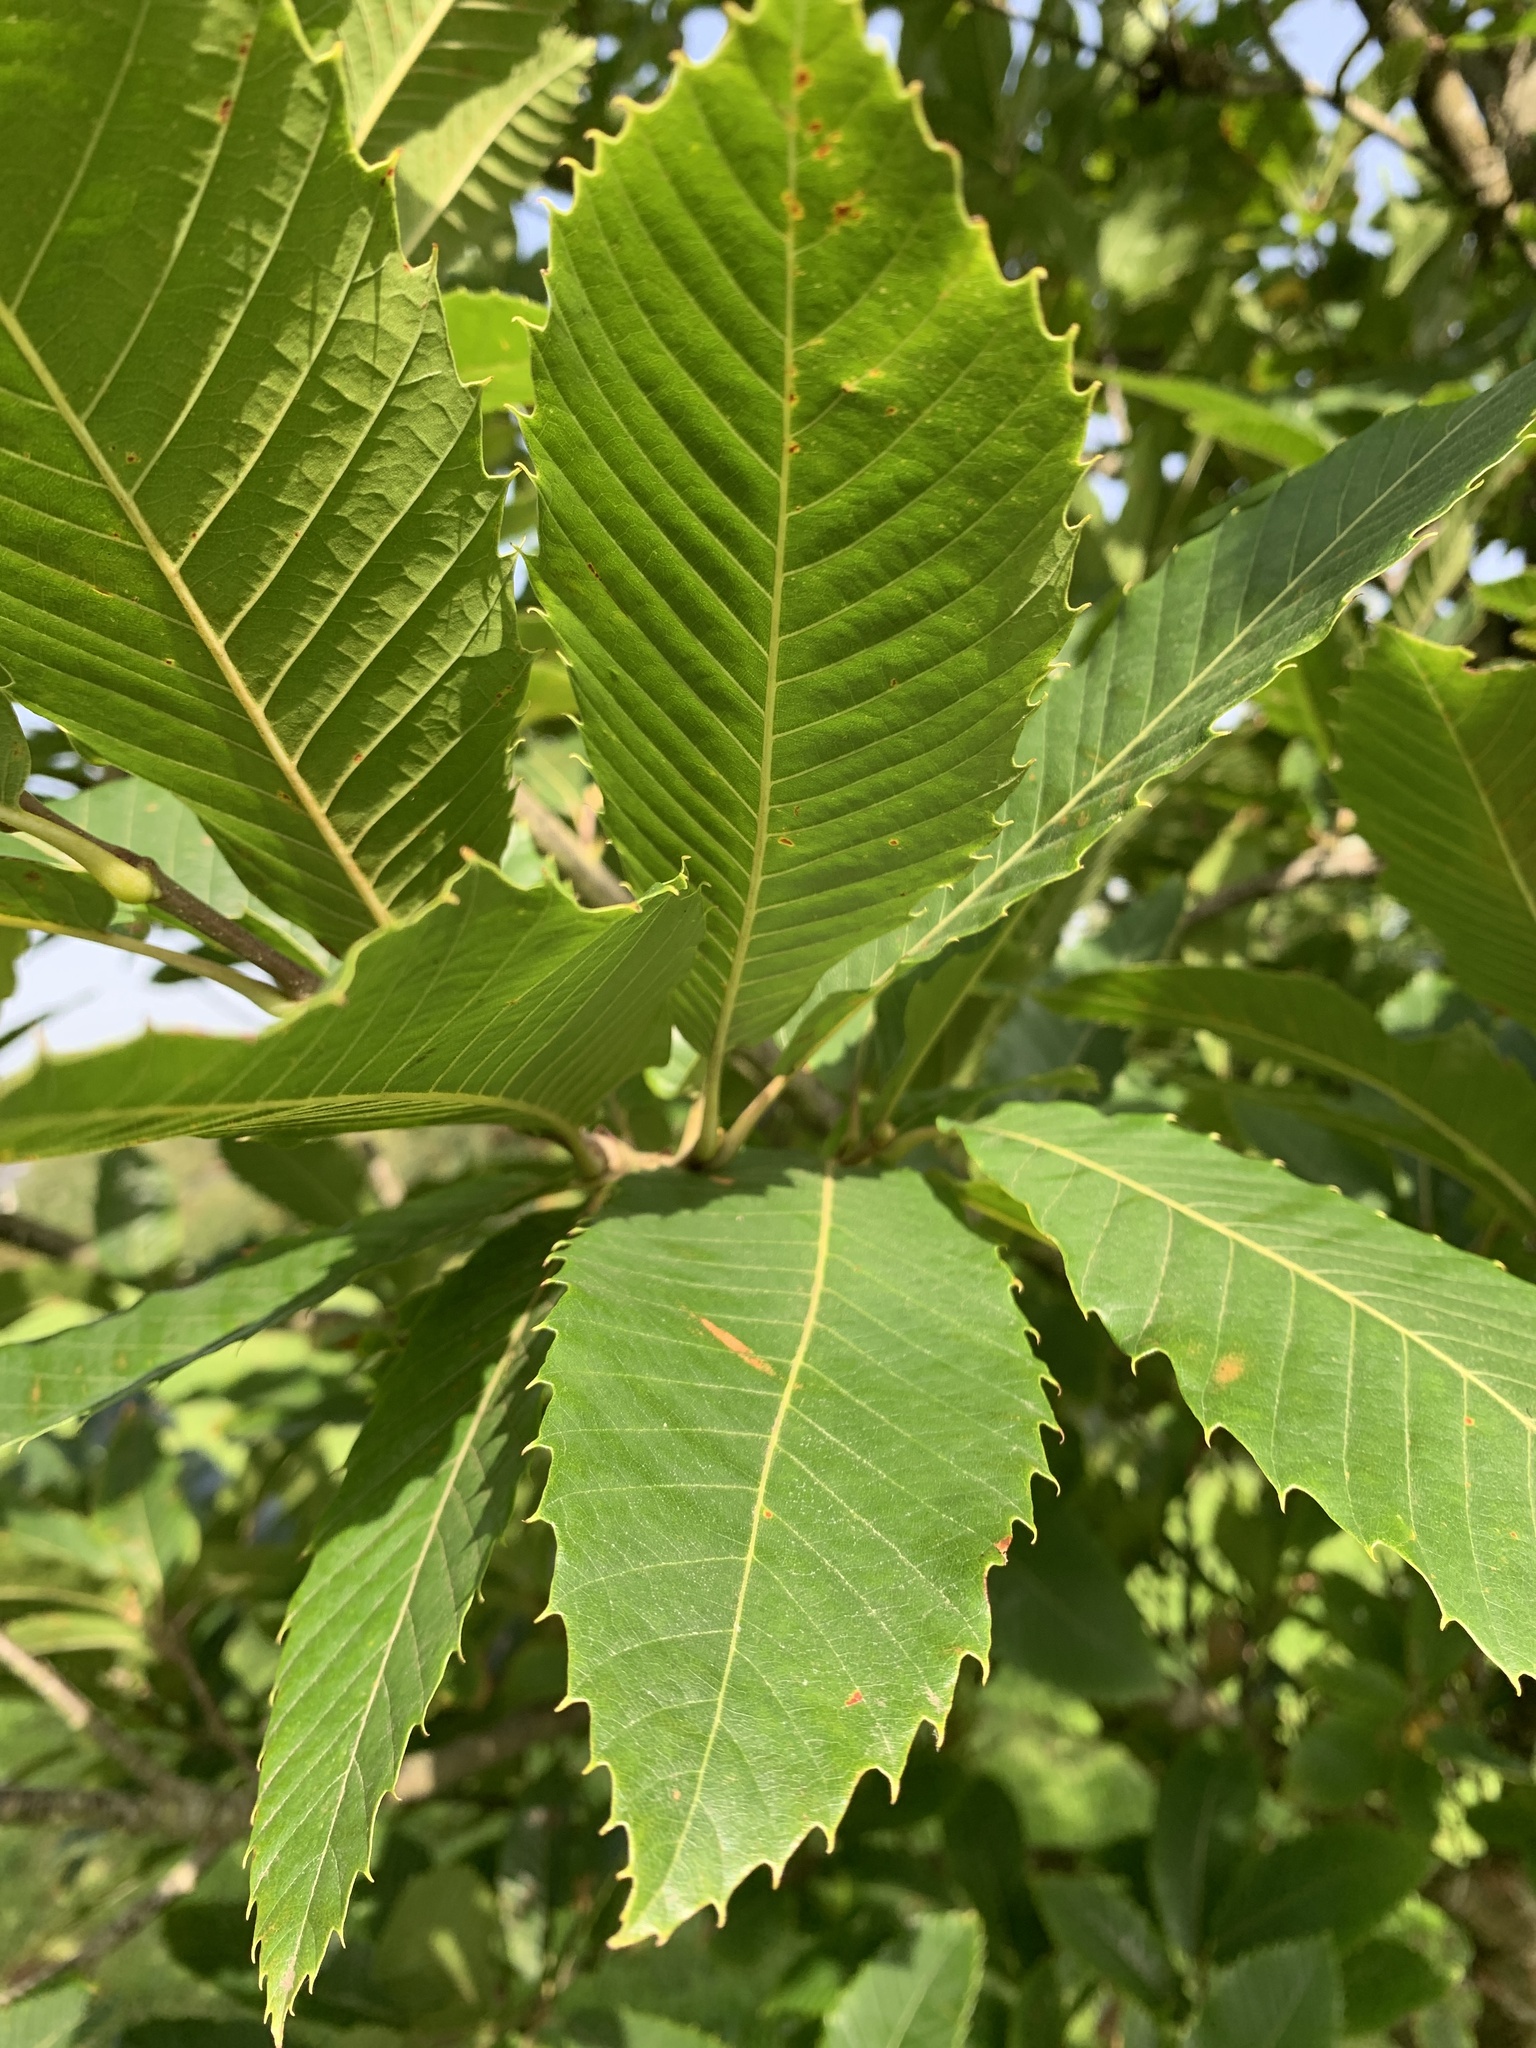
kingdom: Plantae
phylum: Tracheophyta
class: Magnoliopsida
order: Fagales
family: Fagaceae
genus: Castanea
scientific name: Castanea sativa
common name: Sweet chestnut
